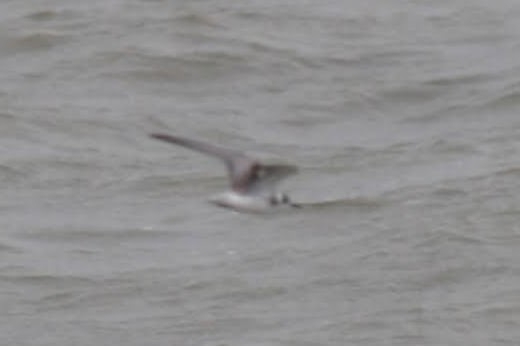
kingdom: Animalia
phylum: Chordata
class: Aves
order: Charadriiformes
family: Laridae
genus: Chlidonias
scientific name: Chlidonias leucopterus
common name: White-winged tern
